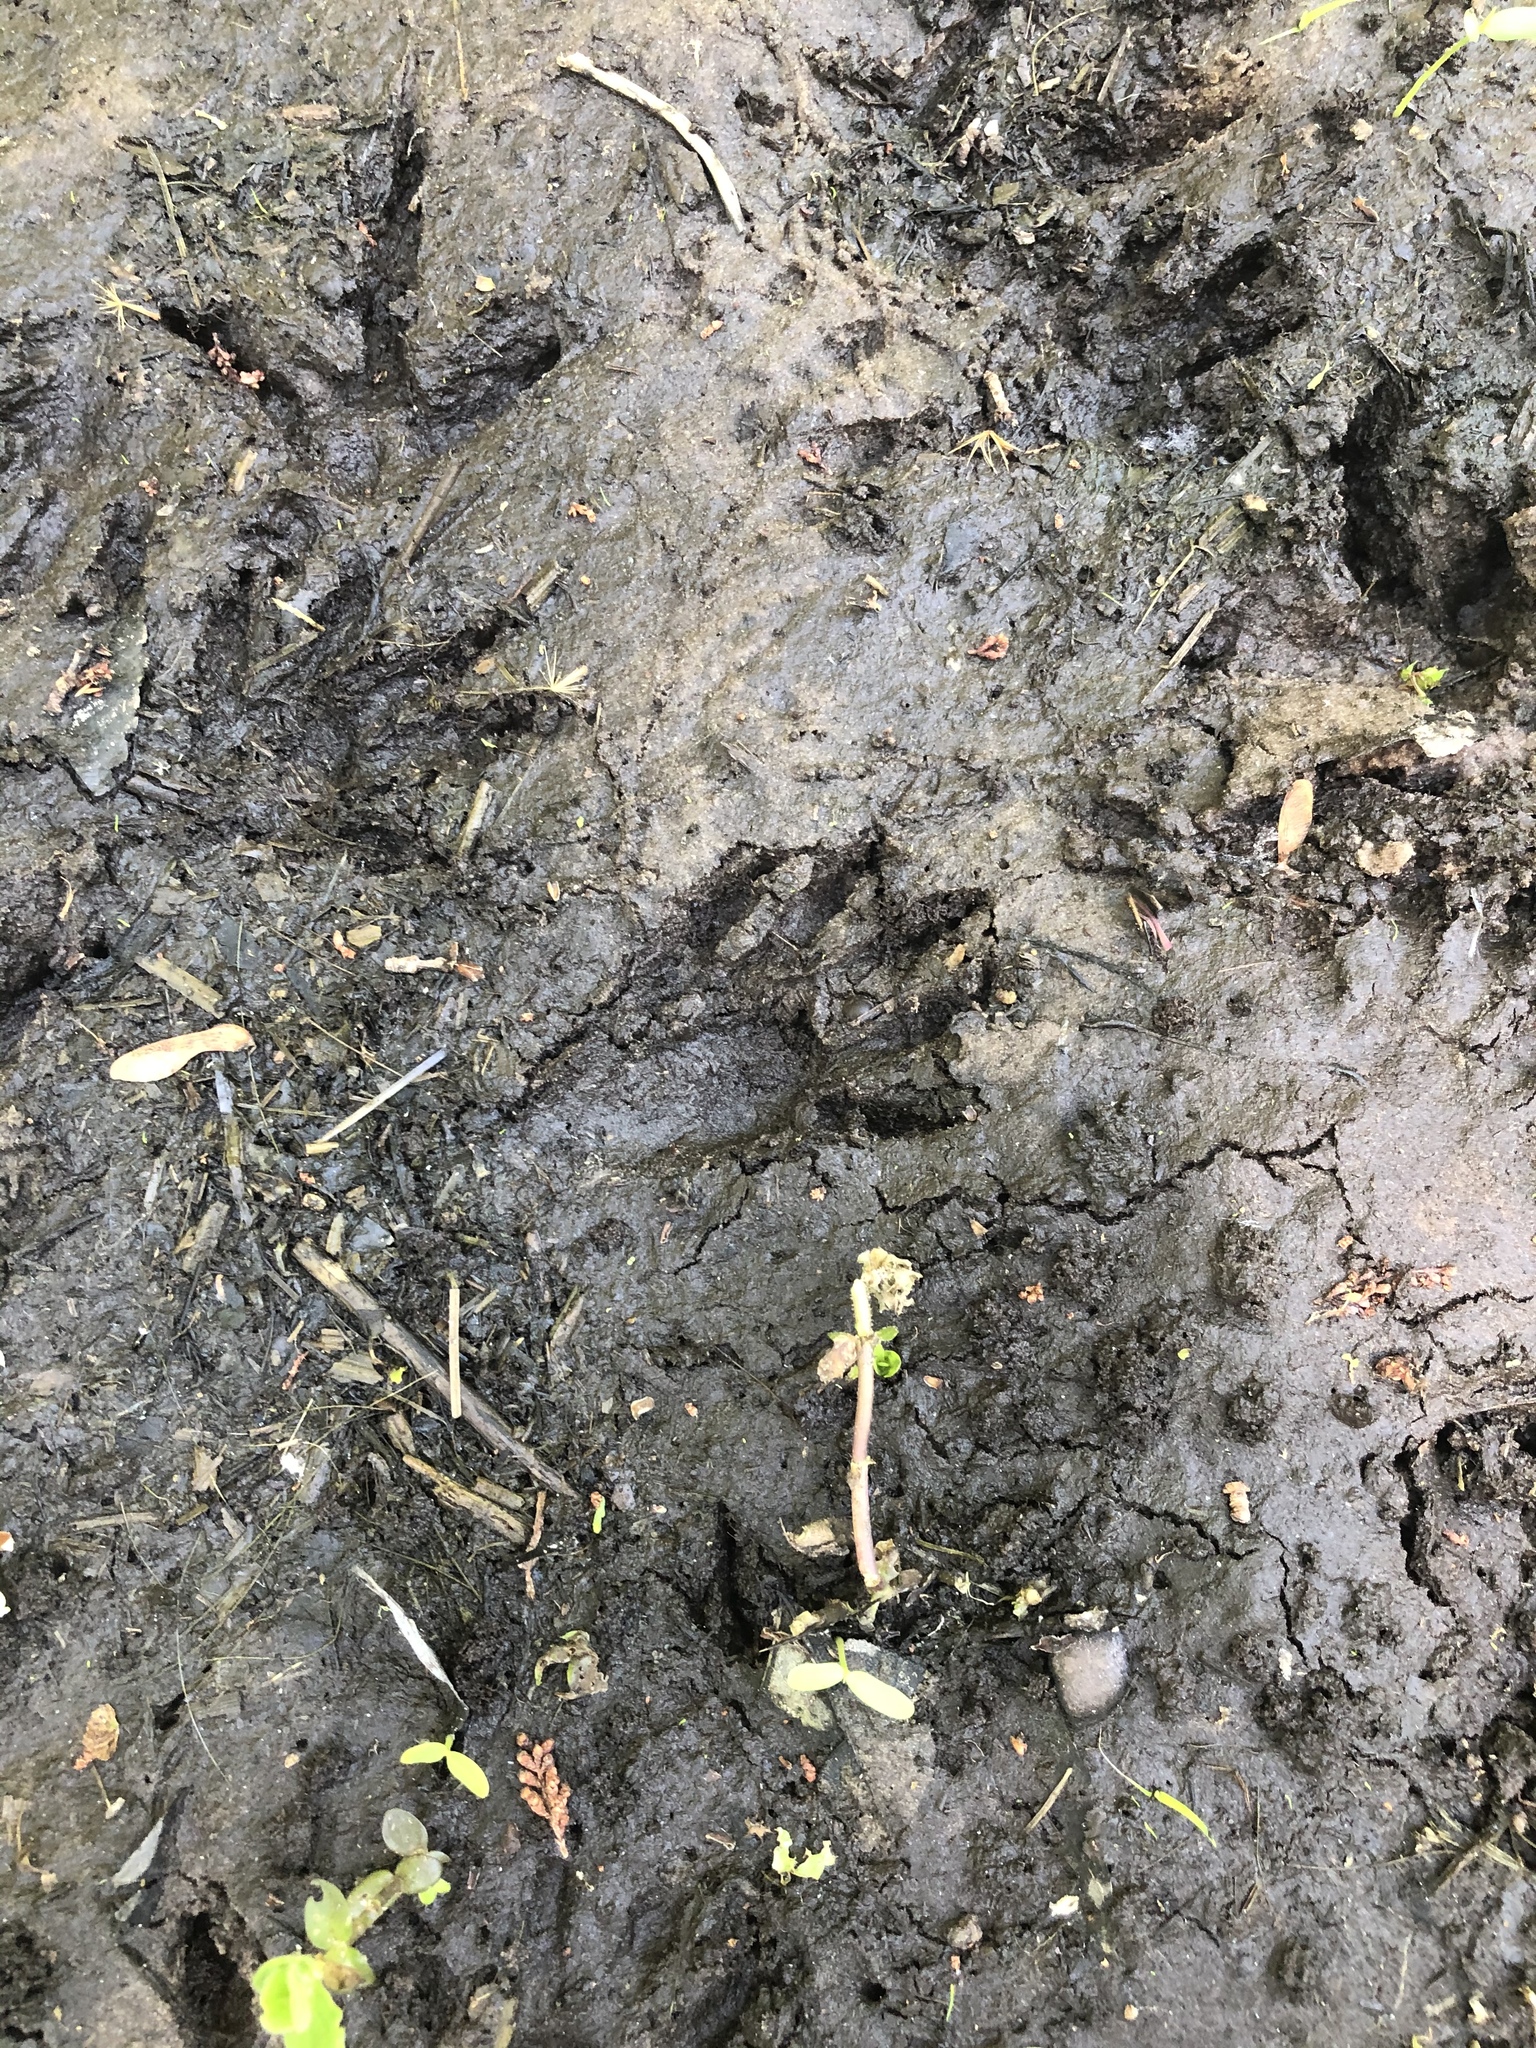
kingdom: Animalia
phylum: Chordata
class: Mammalia
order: Carnivora
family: Procyonidae
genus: Procyon
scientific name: Procyon lotor
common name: Raccoon
